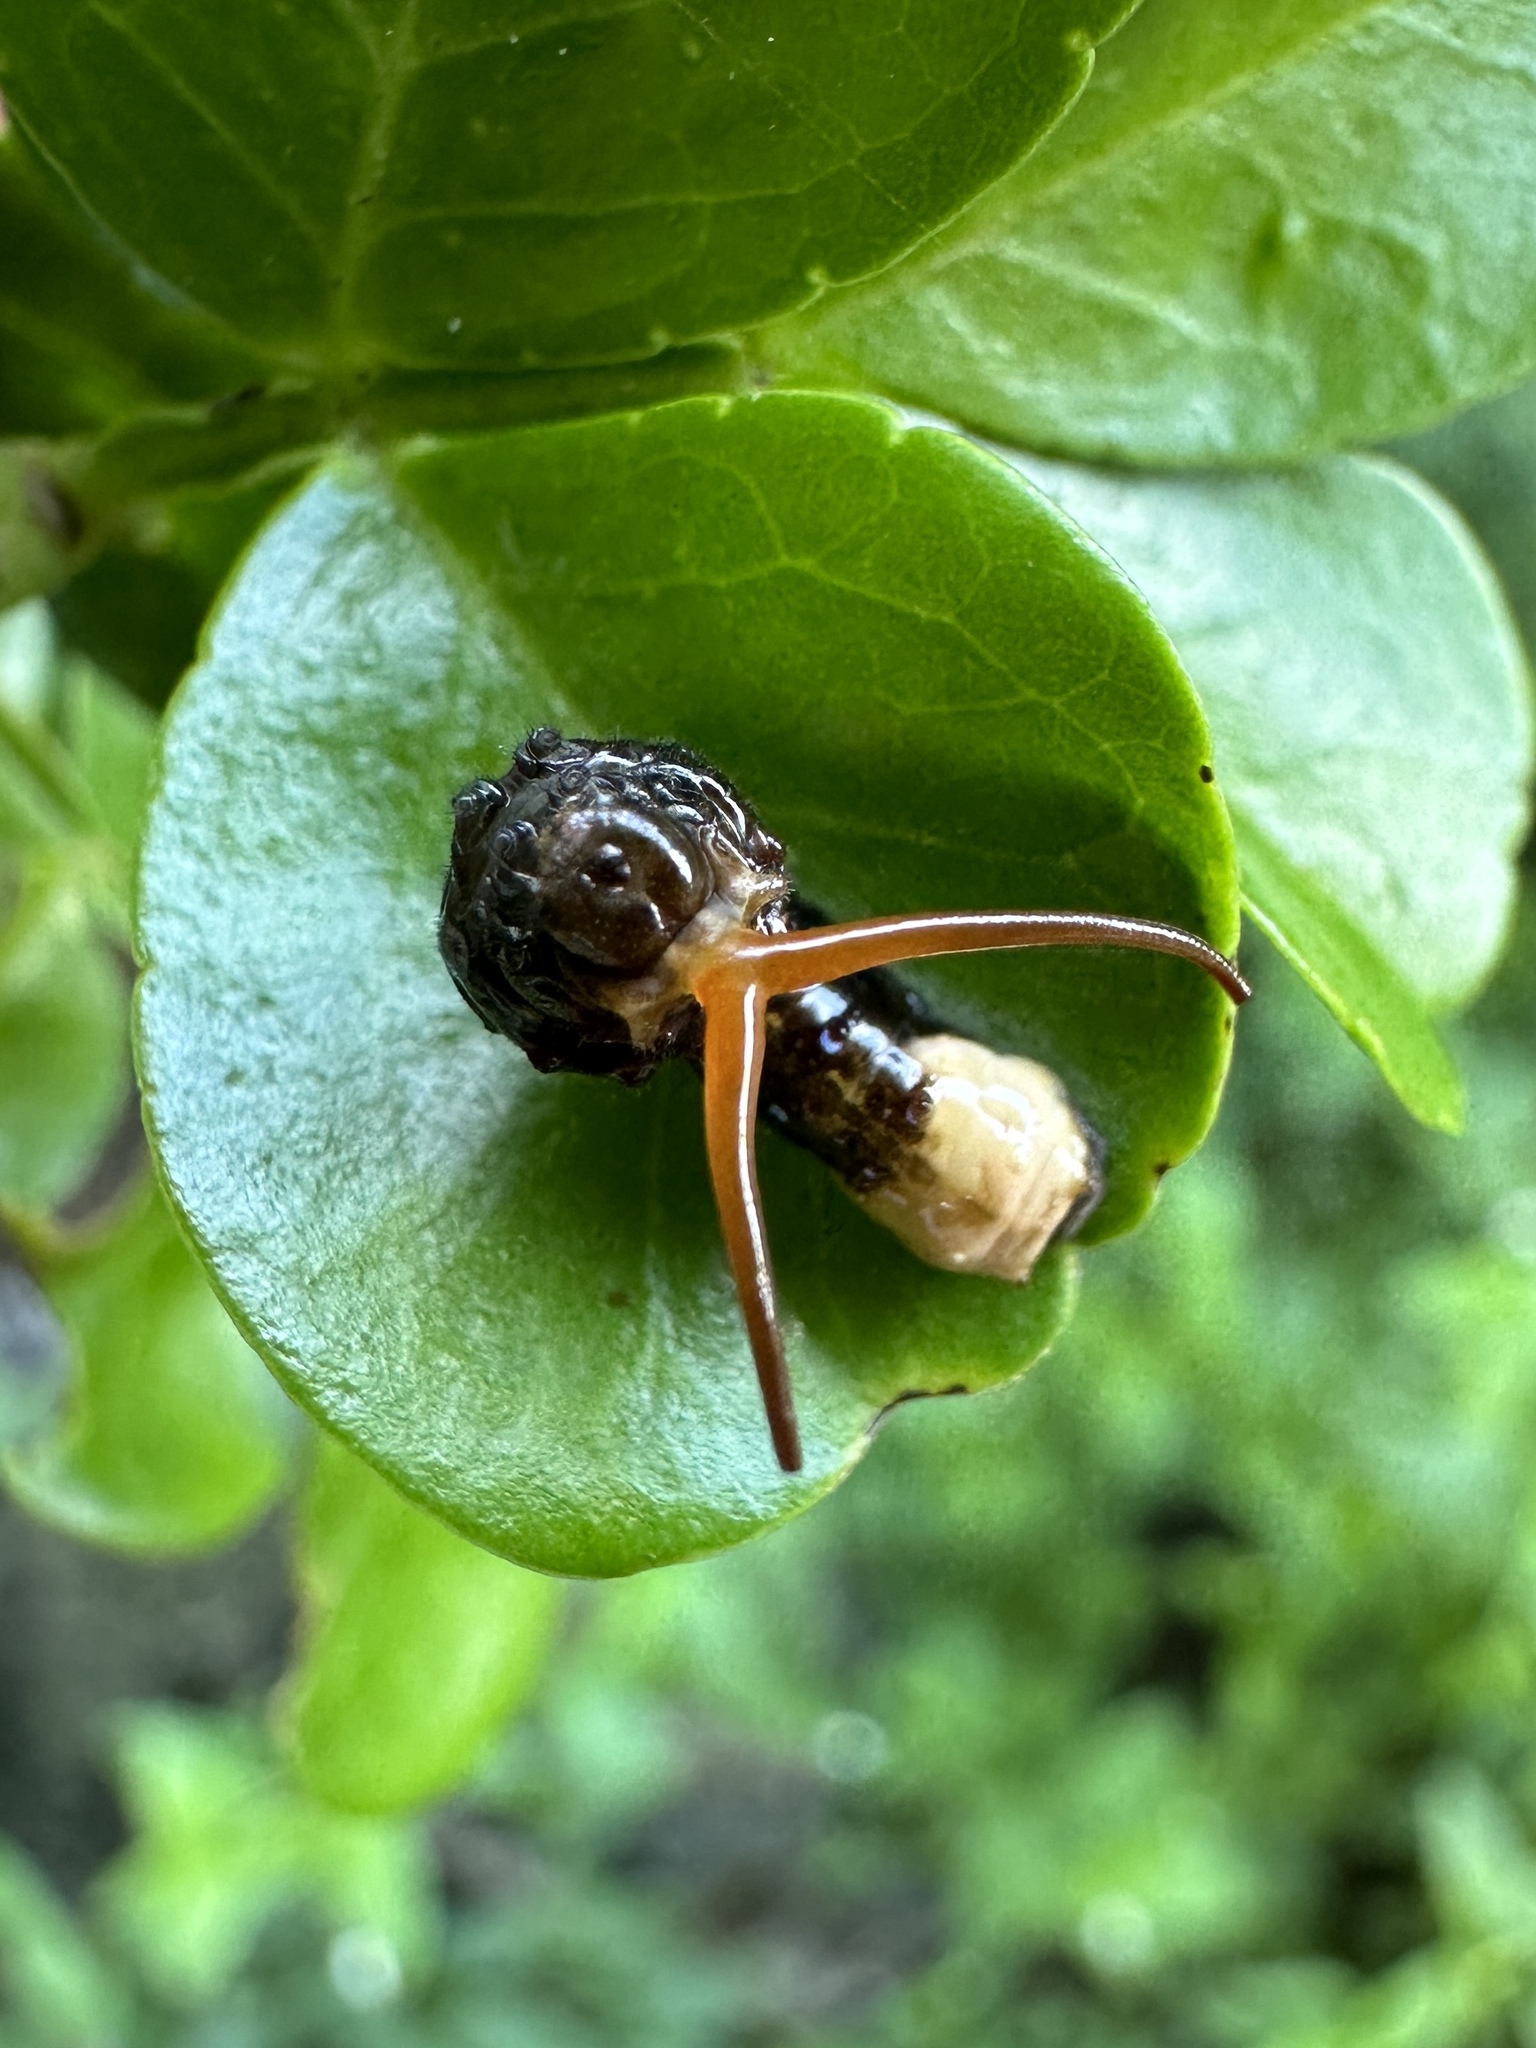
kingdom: Animalia
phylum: Arthropoda
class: Insecta
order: Lepidoptera
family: Papilionidae
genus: Papilio
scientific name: Papilio cresphontes
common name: Giant swallowtail
